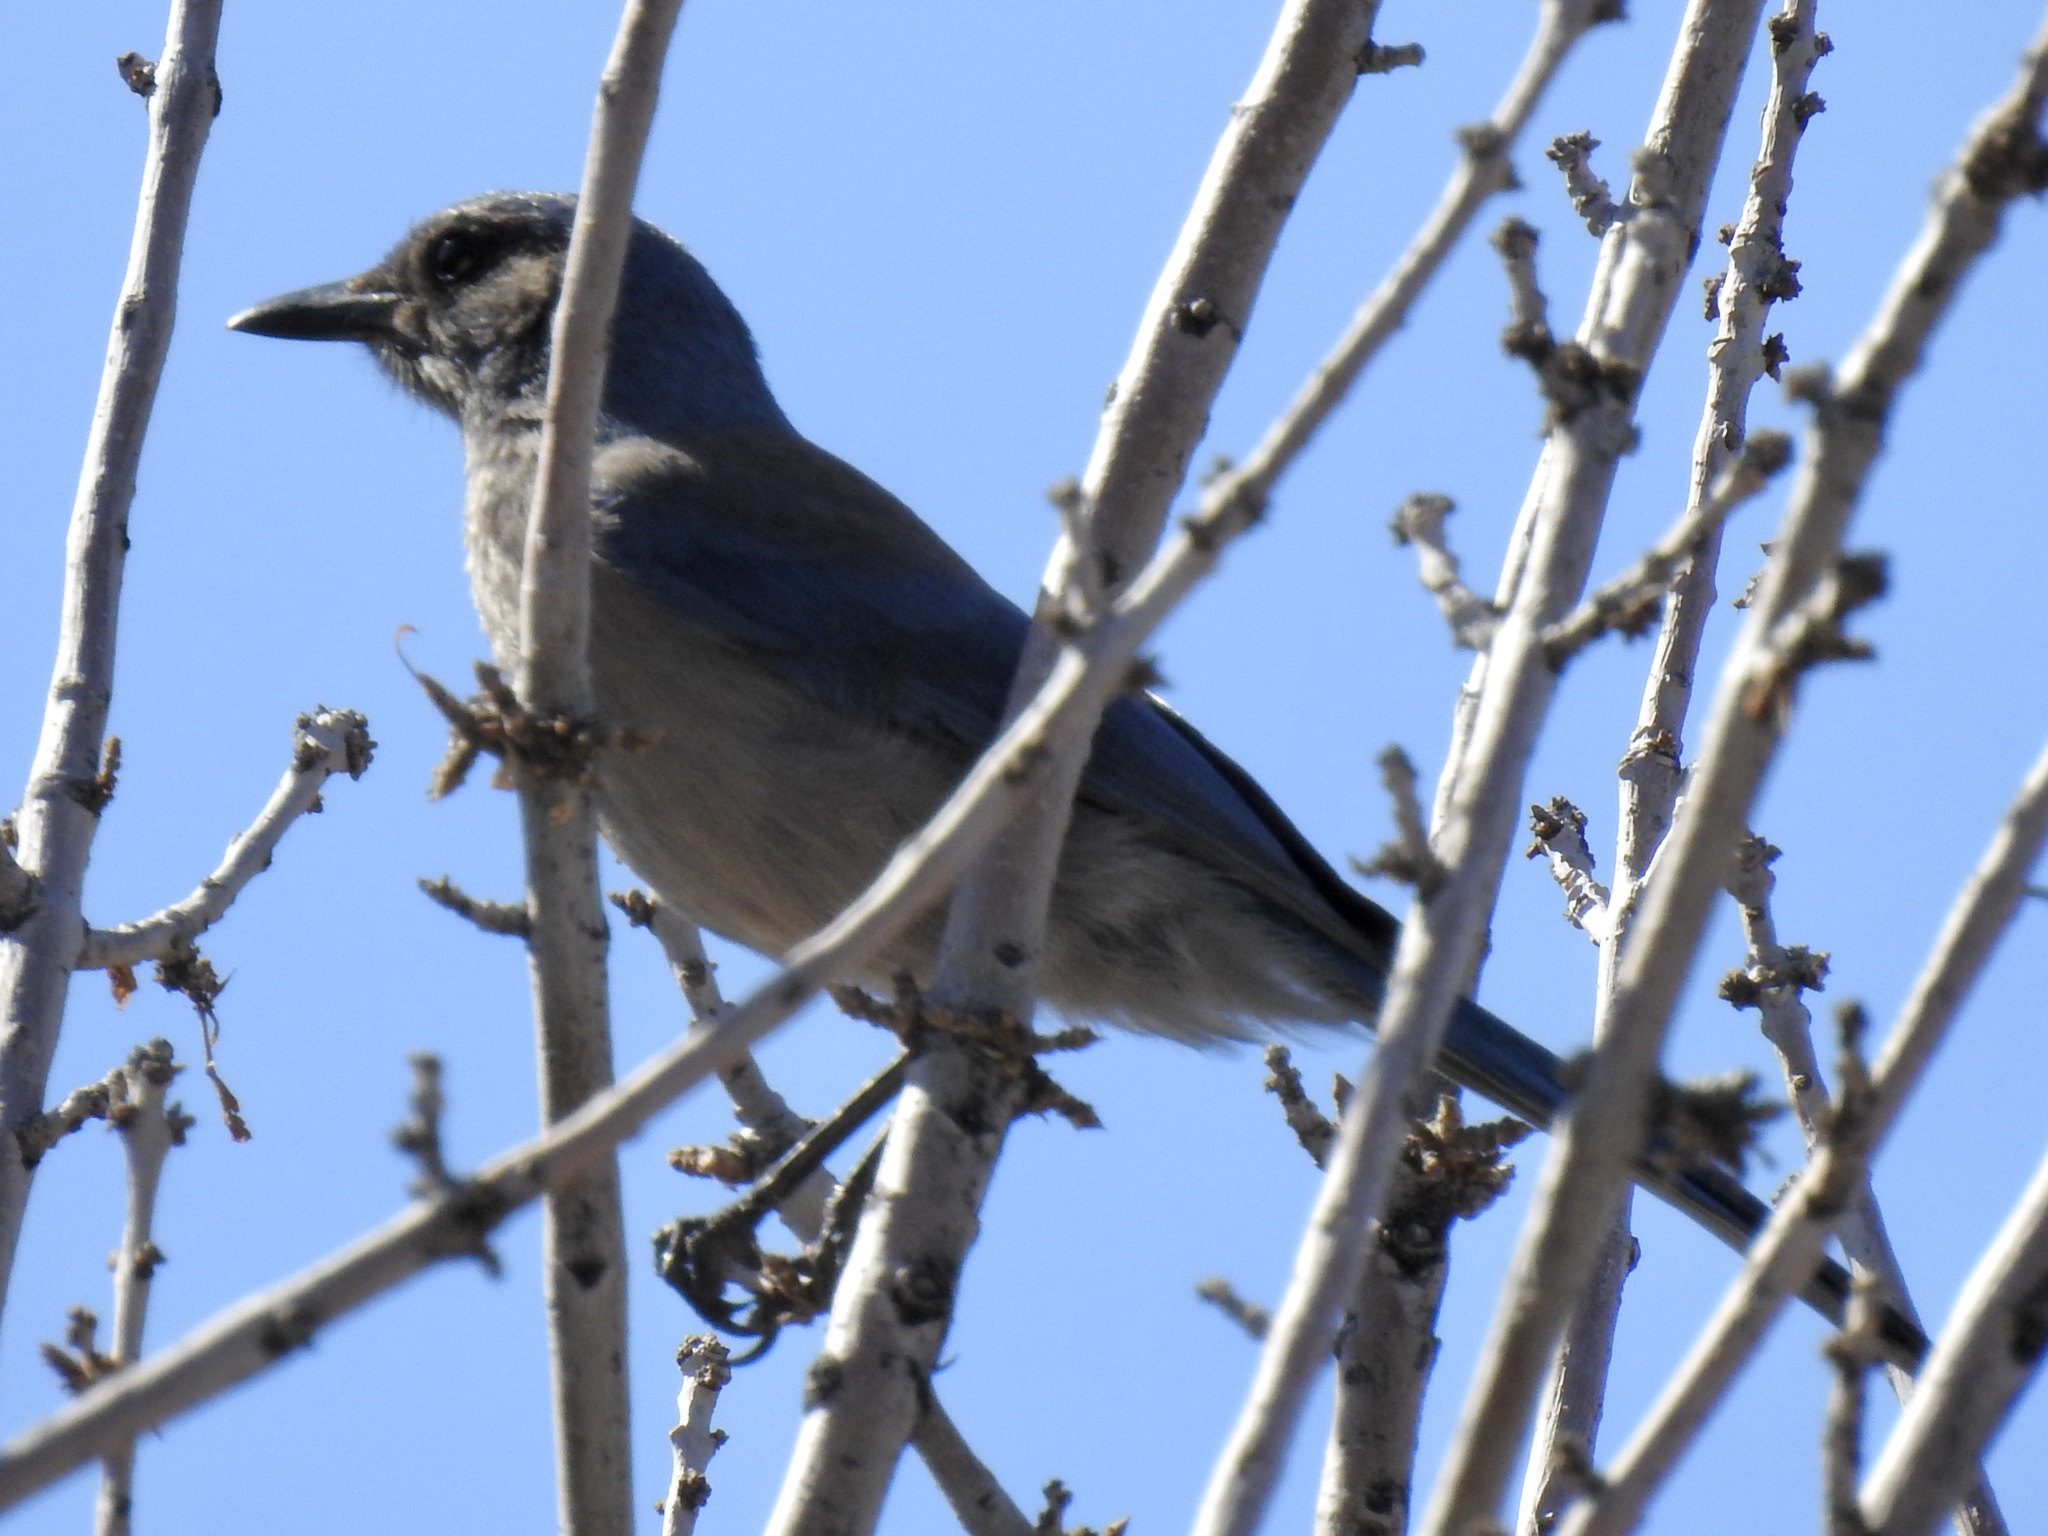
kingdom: Animalia
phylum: Chordata
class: Aves
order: Passeriformes
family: Corvidae
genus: Aphelocoma
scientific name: Aphelocoma woodhouseii
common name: Woodhouse's scrub-jay
